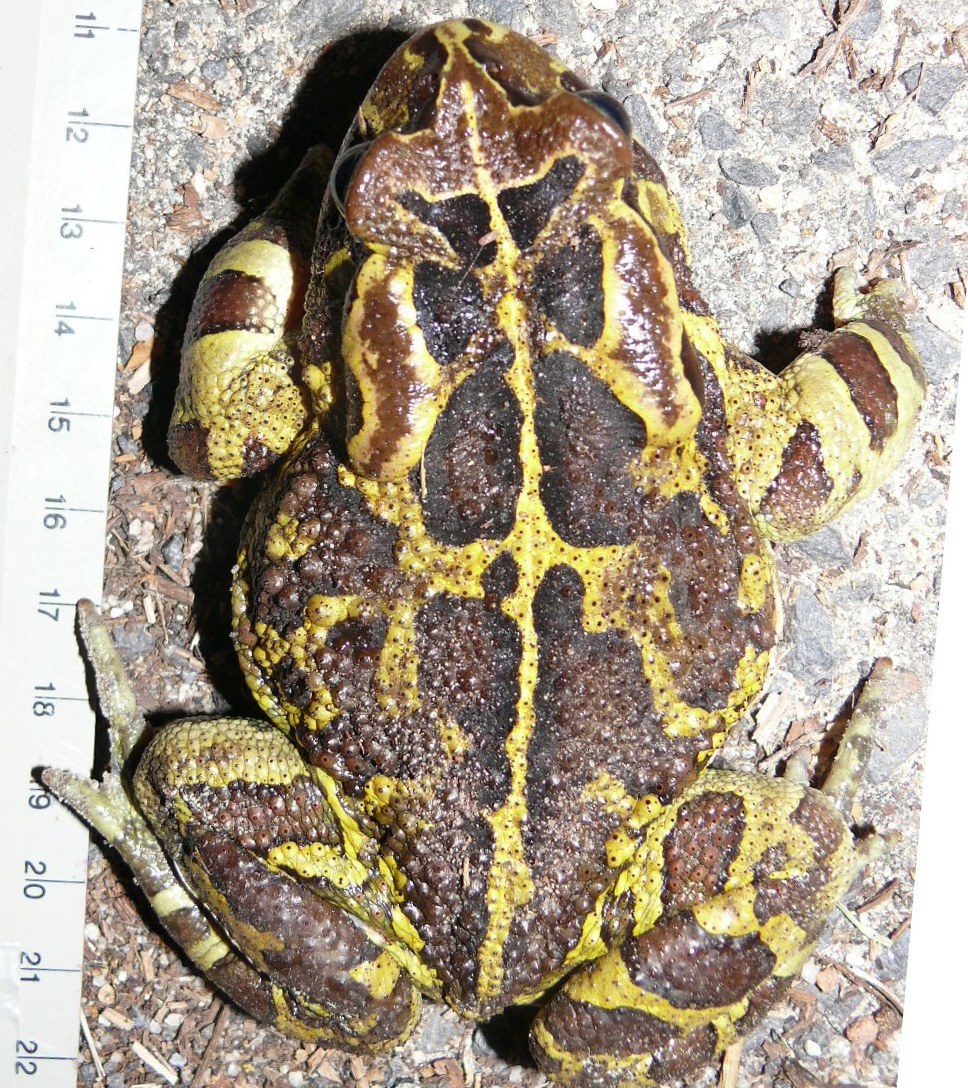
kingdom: Animalia
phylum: Chordata
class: Amphibia
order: Anura
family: Bufonidae
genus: Sclerophrys
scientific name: Sclerophrys pantherina
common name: Panther toad
